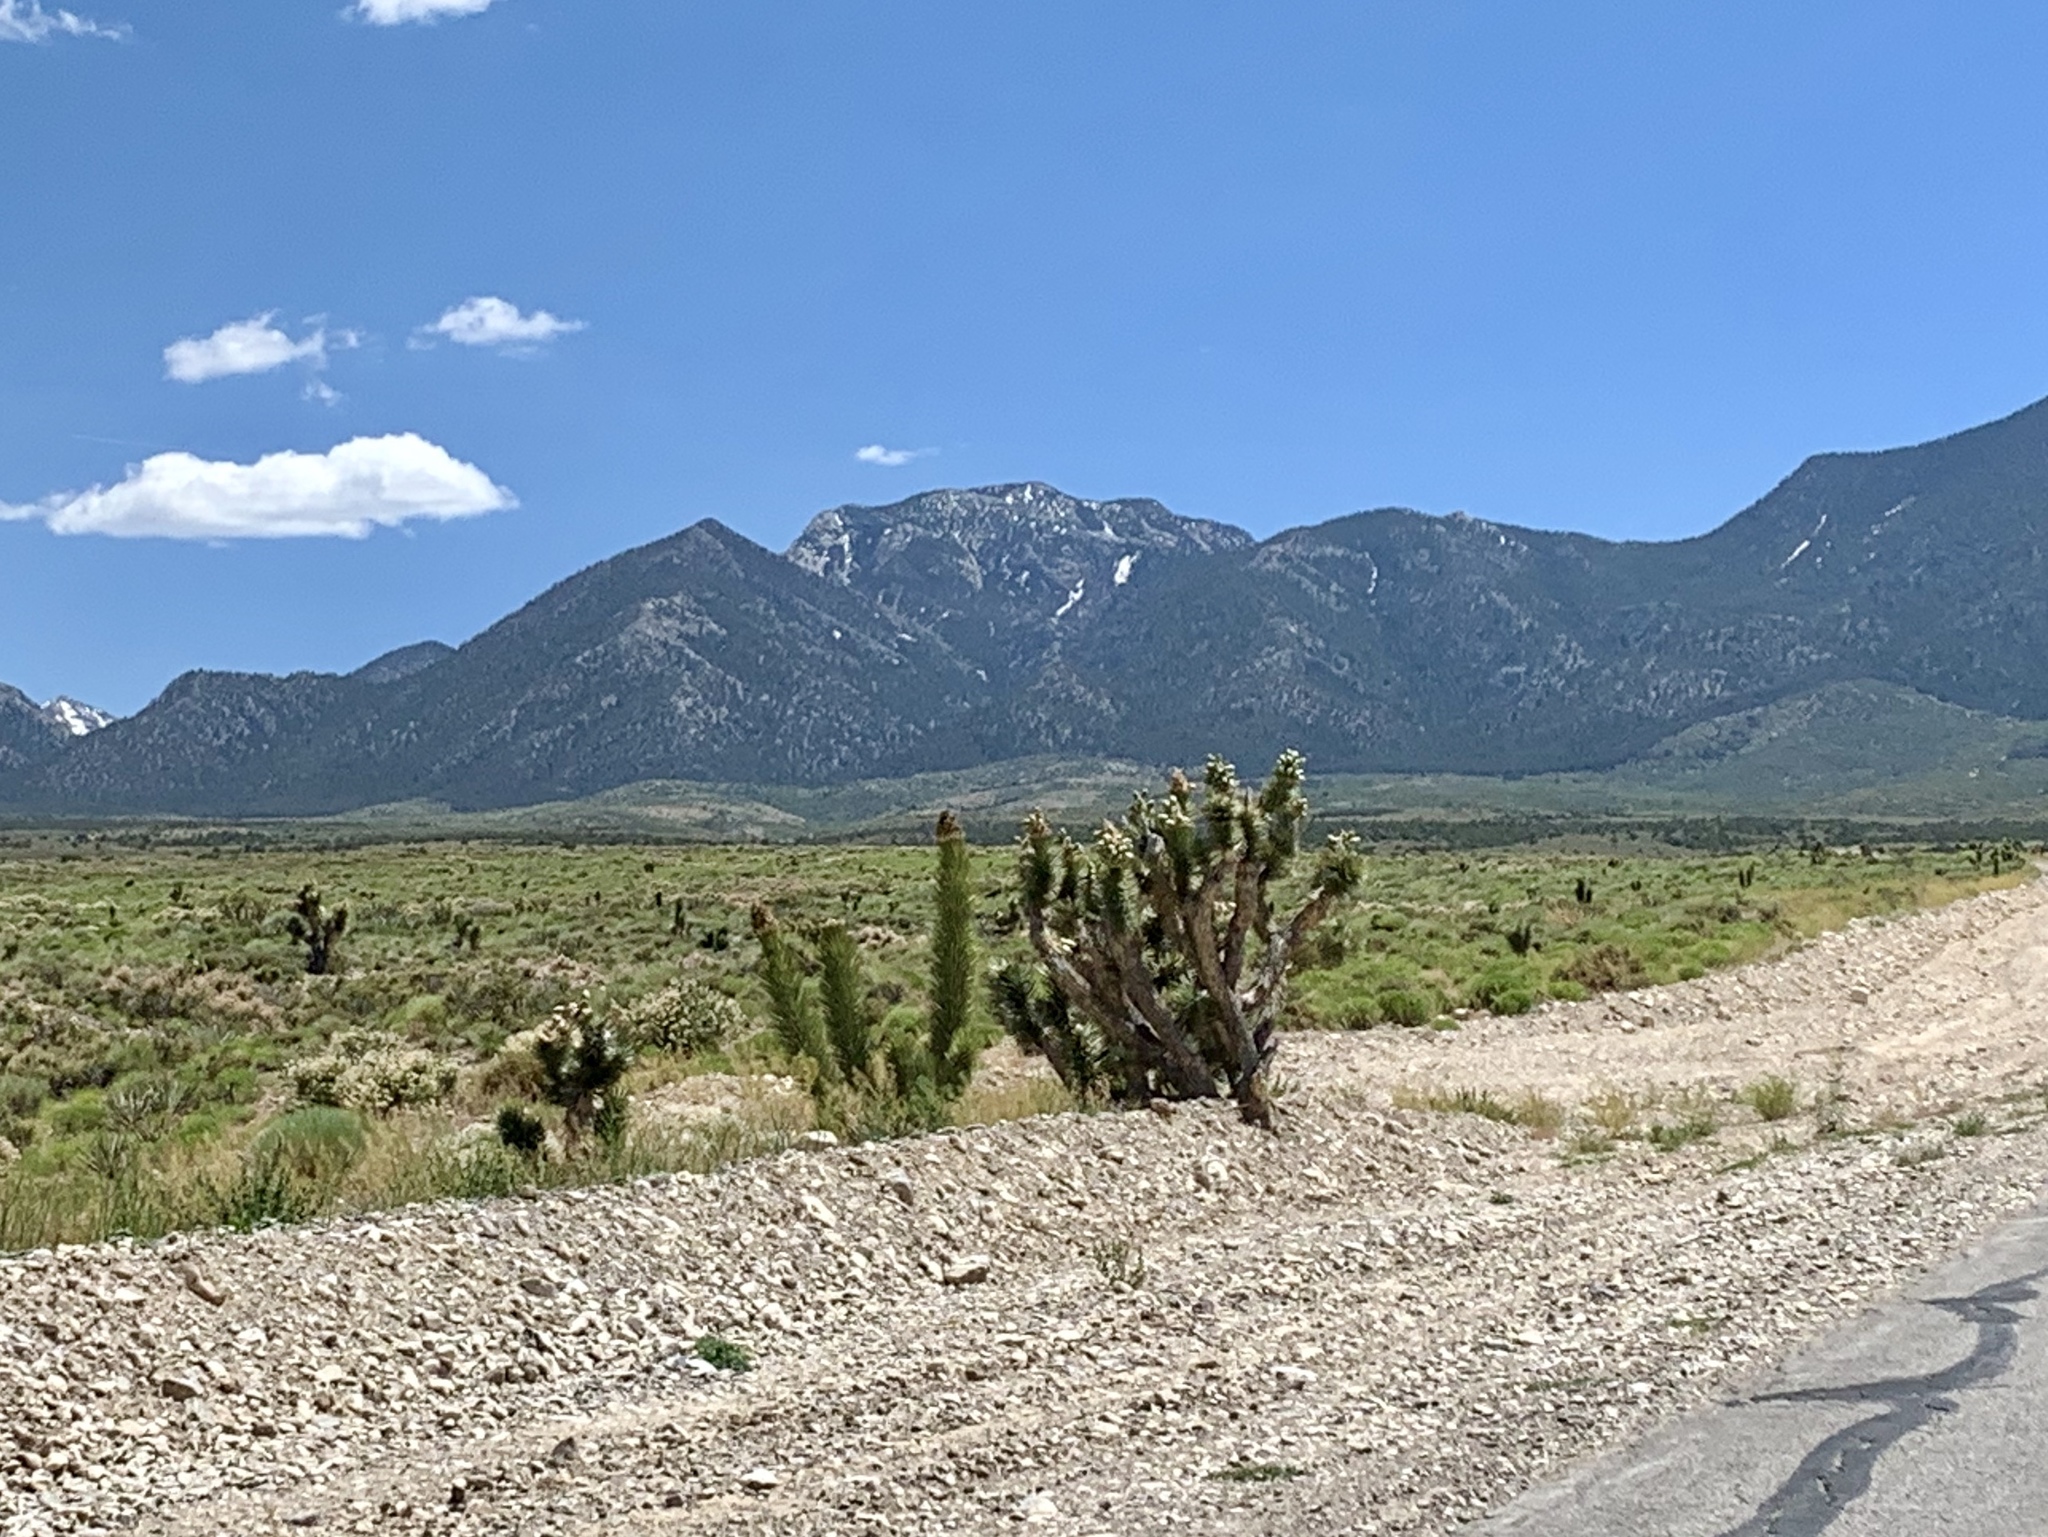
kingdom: Plantae
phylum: Tracheophyta
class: Liliopsida
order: Asparagales
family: Asparagaceae
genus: Yucca
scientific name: Yucca brevifolia
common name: Joshua tree
